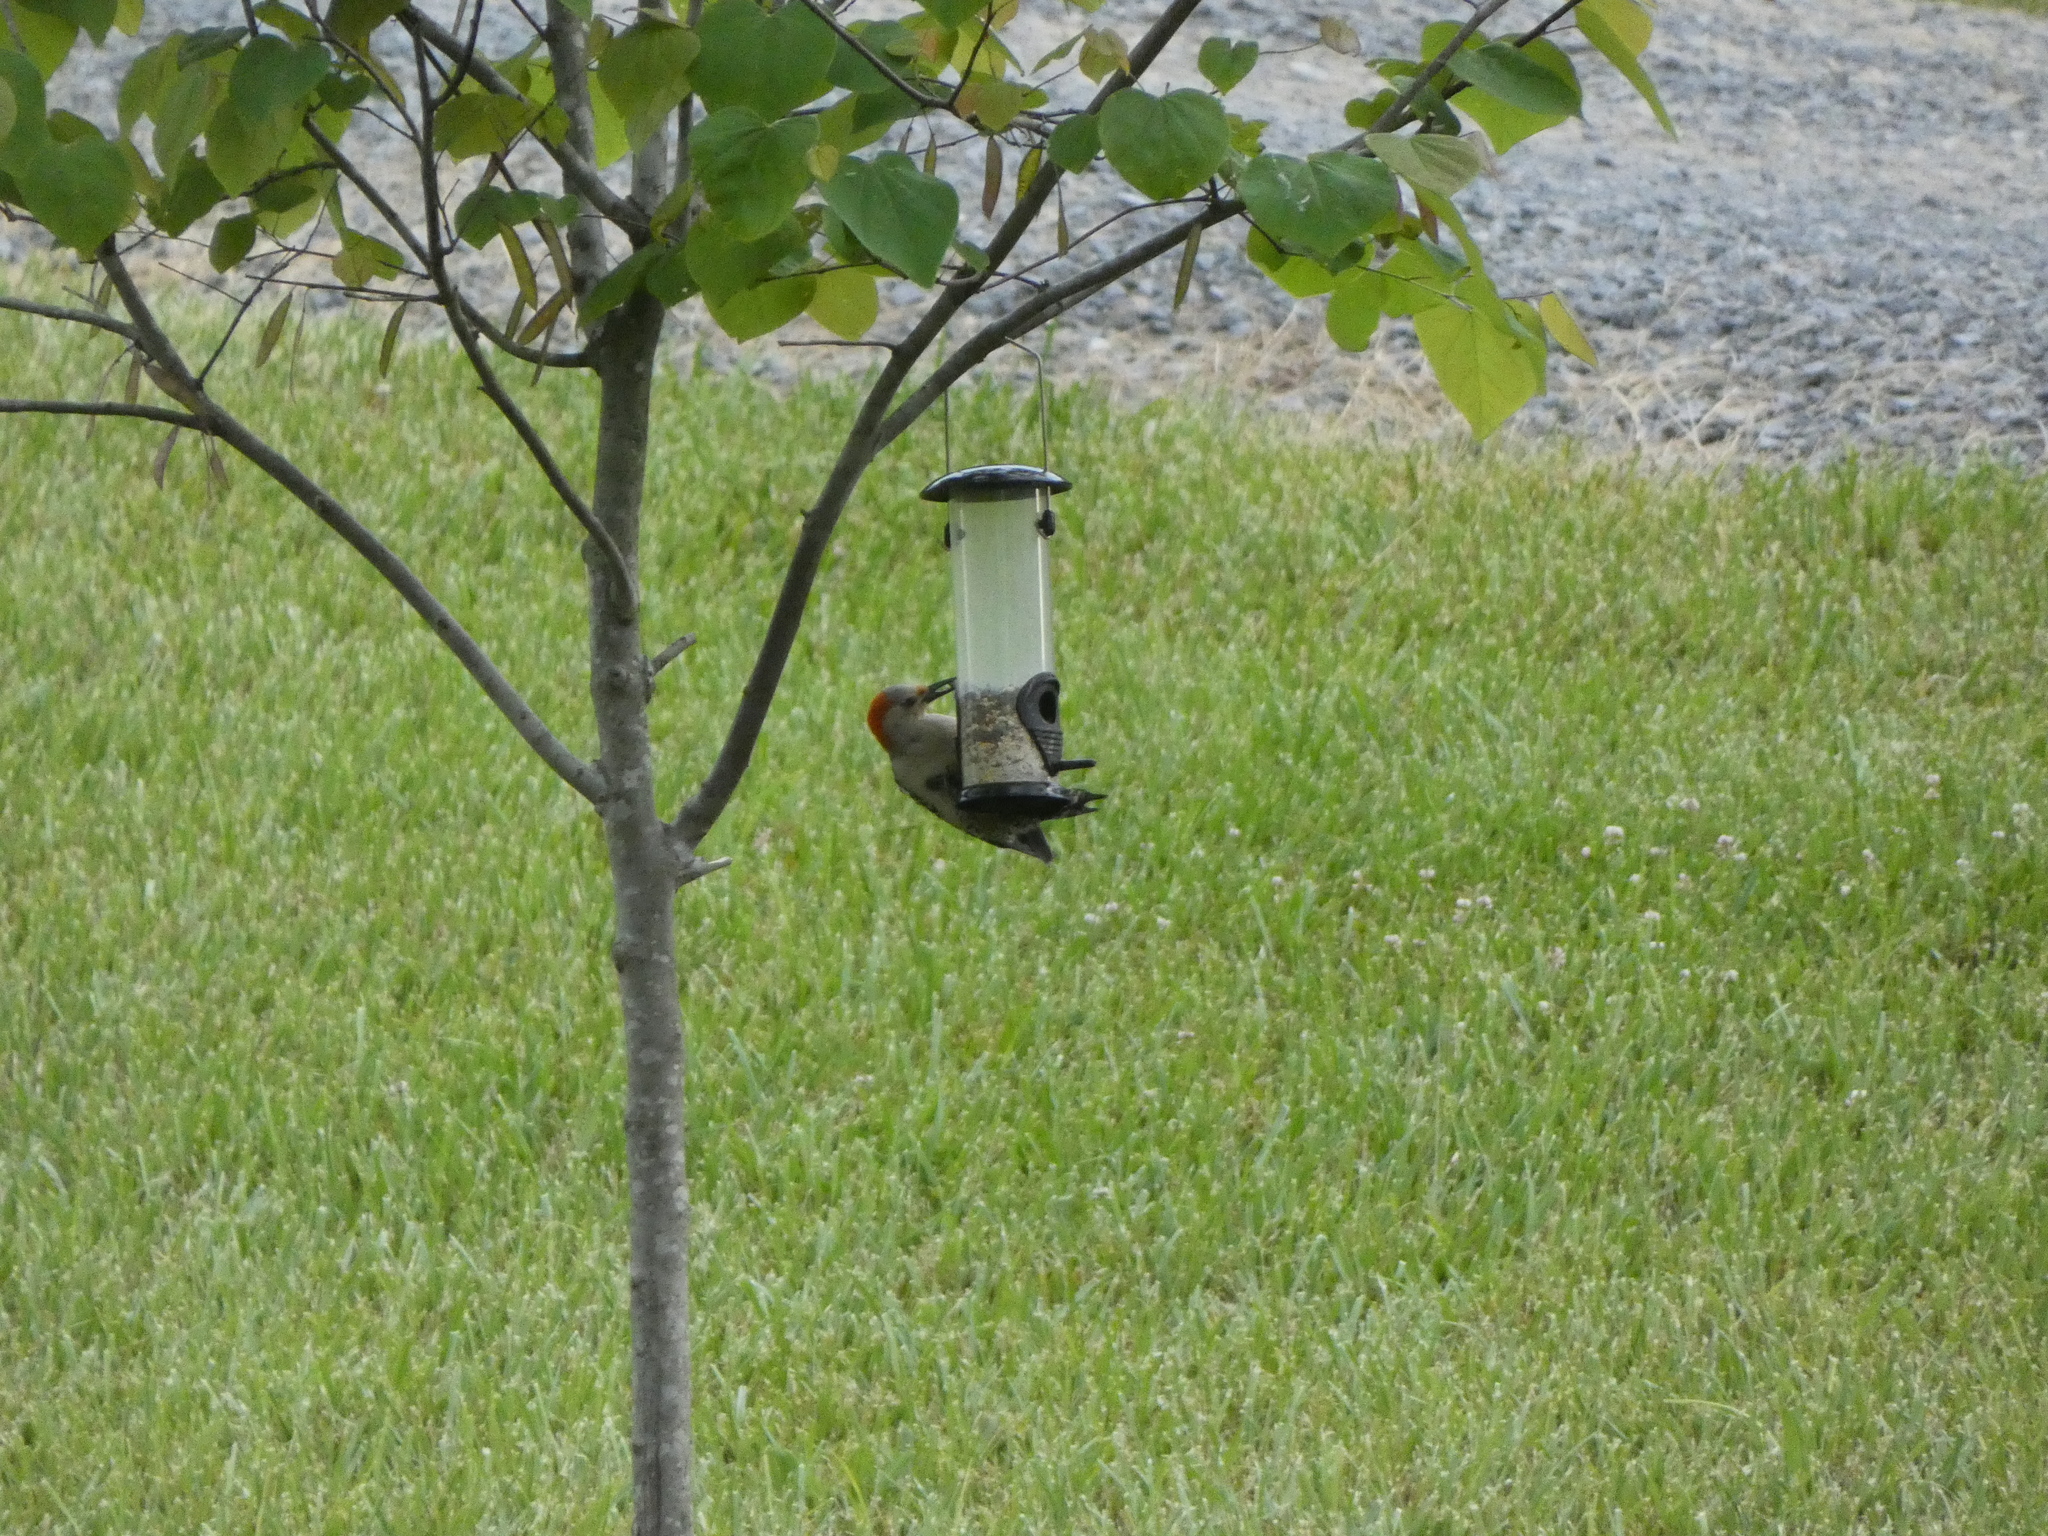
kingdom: Animalia
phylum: Chordata
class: Aves
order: Piciformes
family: Picidae
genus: Melanerpes
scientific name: Melanerpes carolinus
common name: Red-bellied woodpecker
